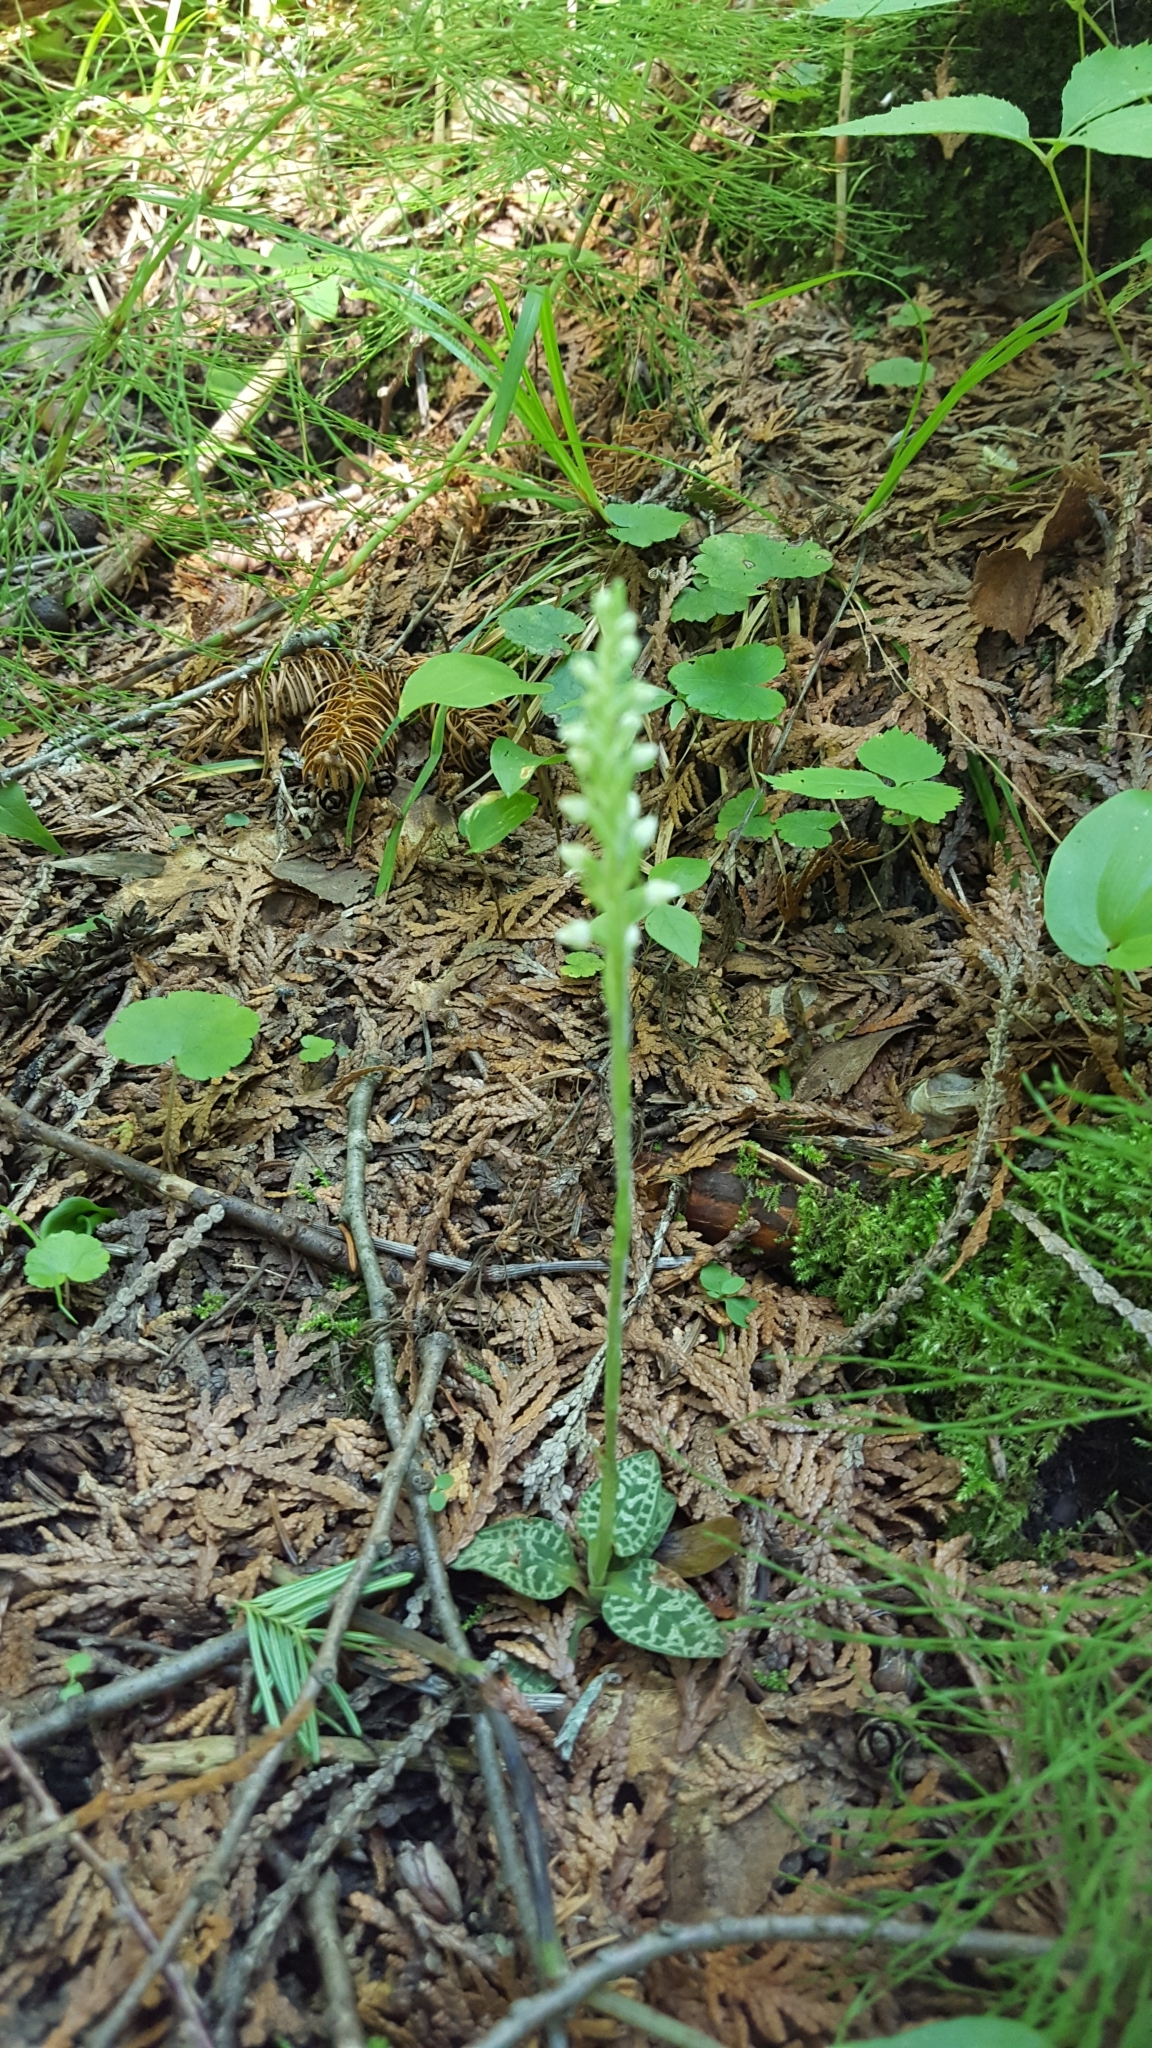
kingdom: Plantae
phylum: Tracheophyta
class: Liliopsida
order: Asparagales
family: Orchidaceae
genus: Goodyera
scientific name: Goodyera repens
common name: Creeping lady's-tresses
